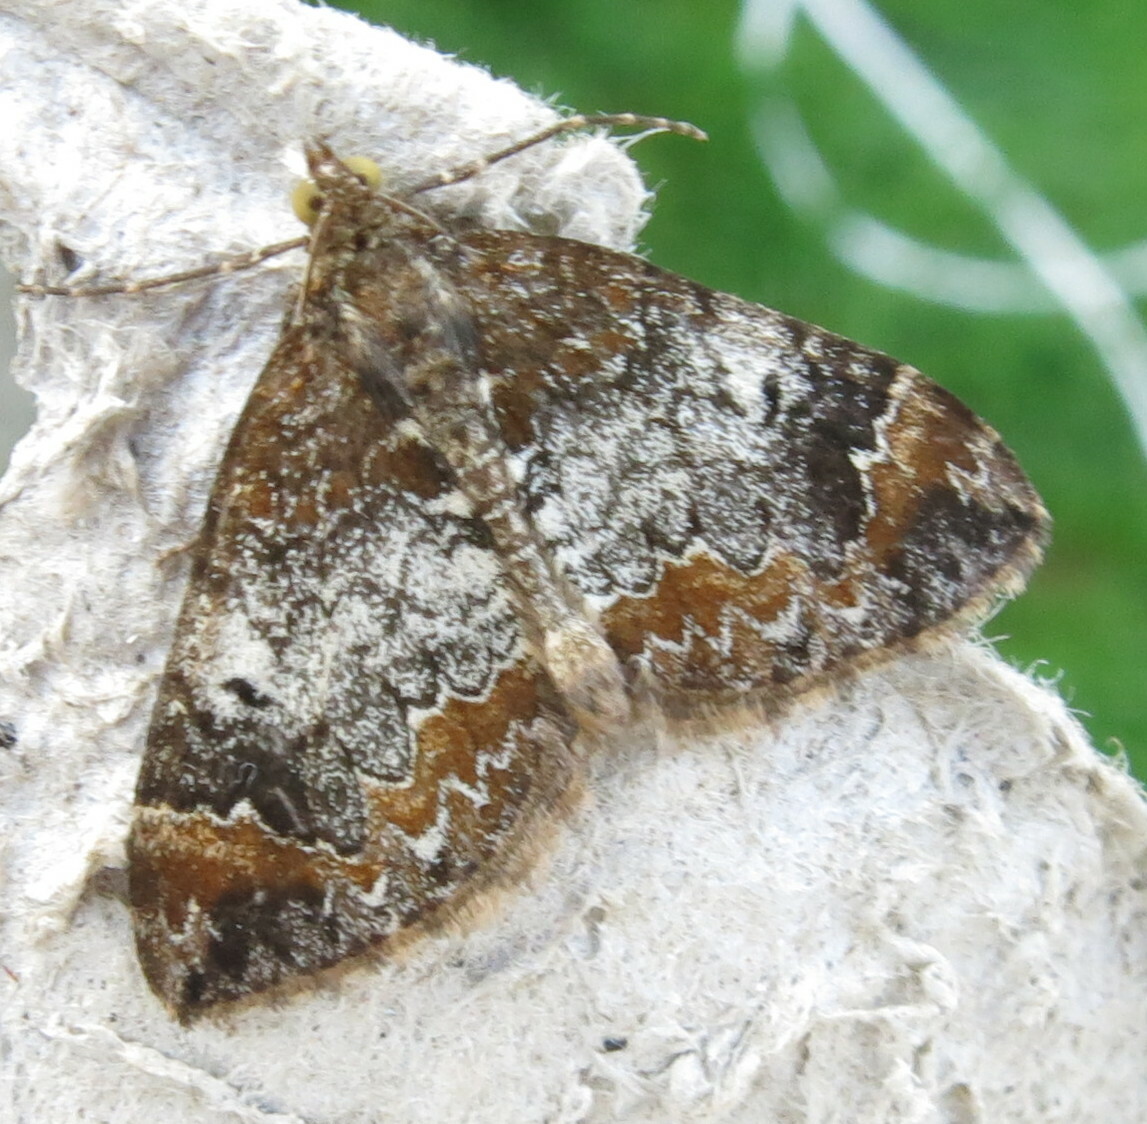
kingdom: Animalia
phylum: Arthropoda
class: Insecta
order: Lepidoptera
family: Geometridae
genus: Dysstroma
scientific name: Dysstroma truncata
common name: Common marbled carpet
